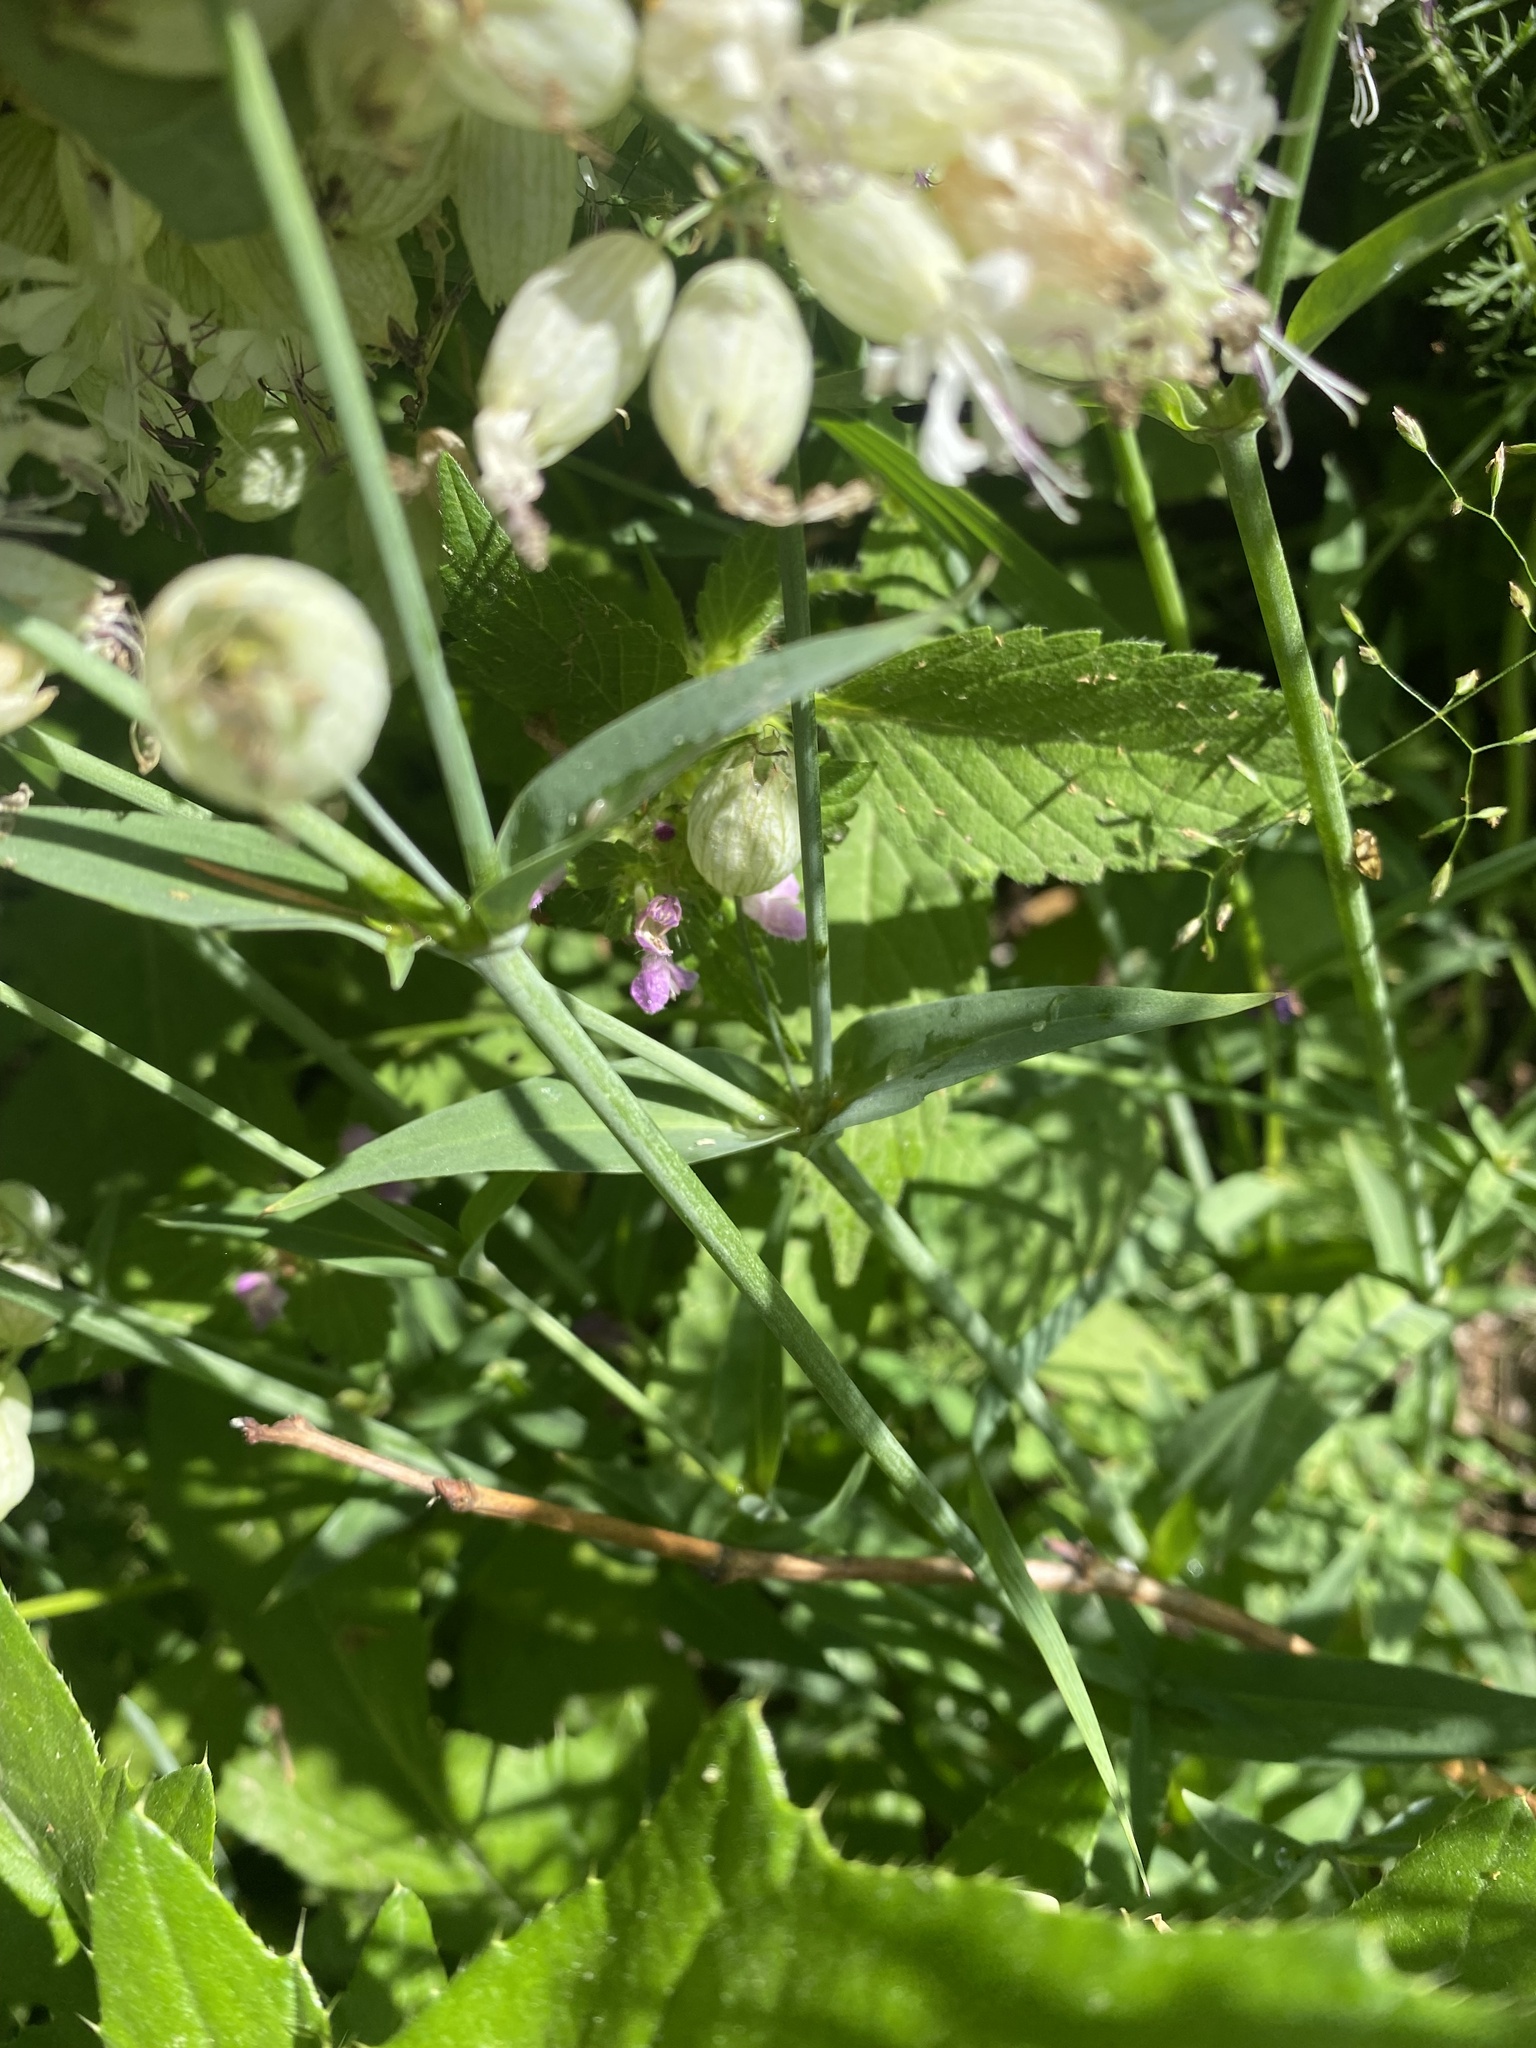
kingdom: Plantae
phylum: Tracheophyta
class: Magnoliopsida
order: Caryophyllales
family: Caryophyllaceae
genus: Silene
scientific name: Silene vulgaris
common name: Bladder campion
